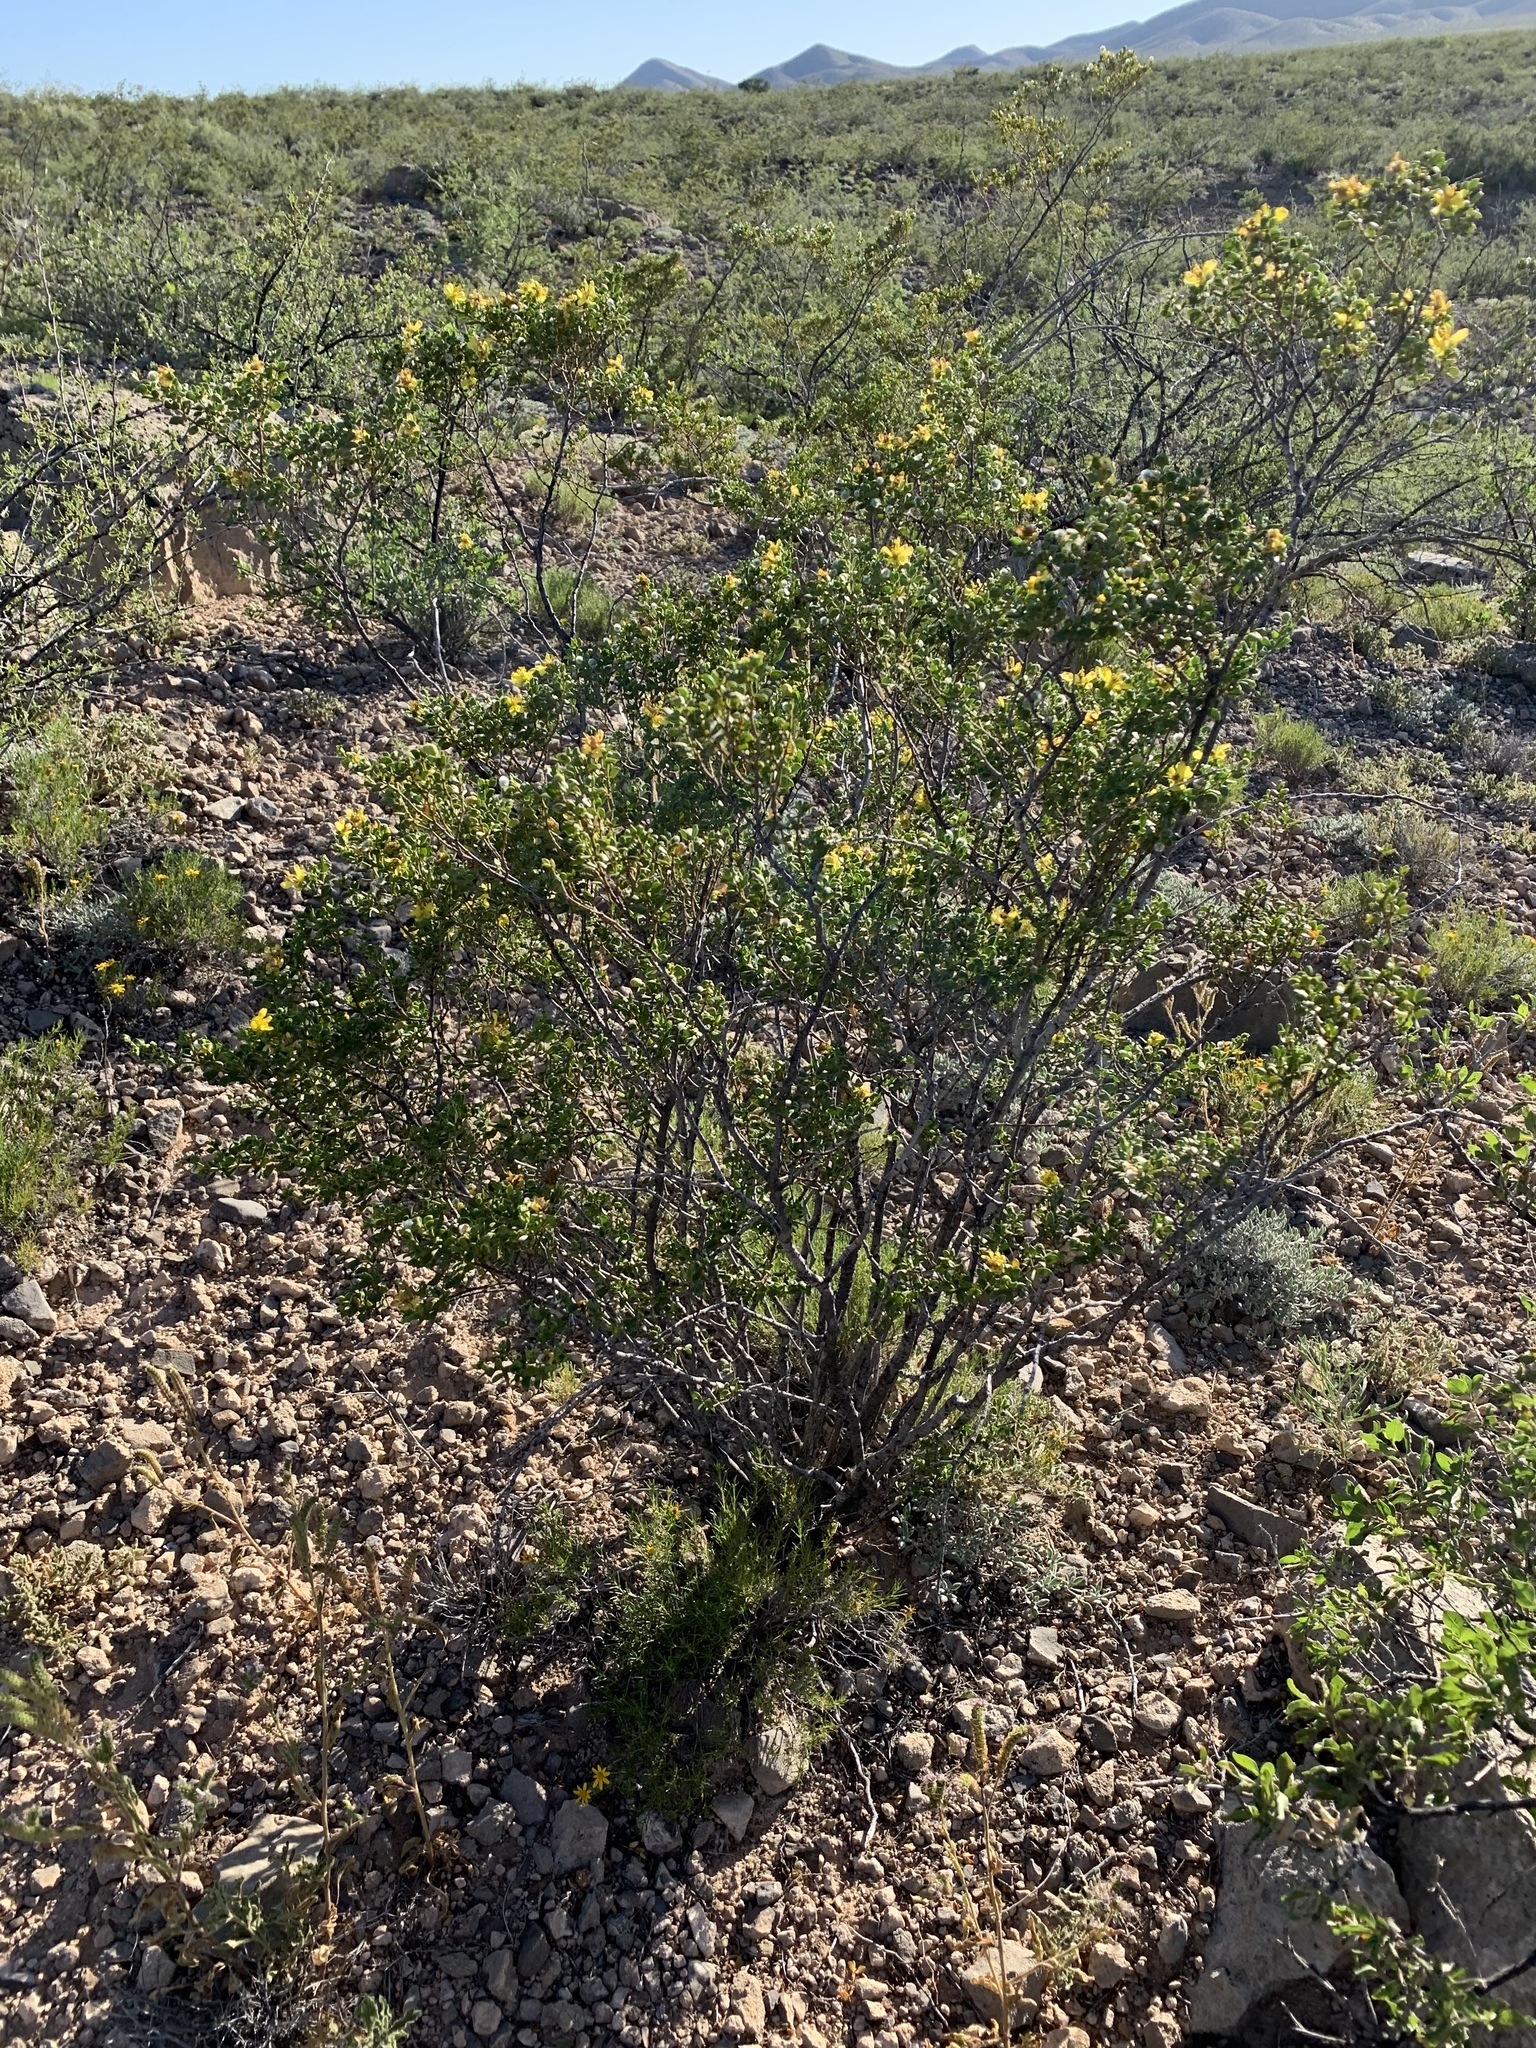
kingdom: Plantae
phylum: Tracheophyta
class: Magnoliopsida
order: Zygophyllales
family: Zygophyllaceae
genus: Larrea
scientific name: Larrea tridentata
